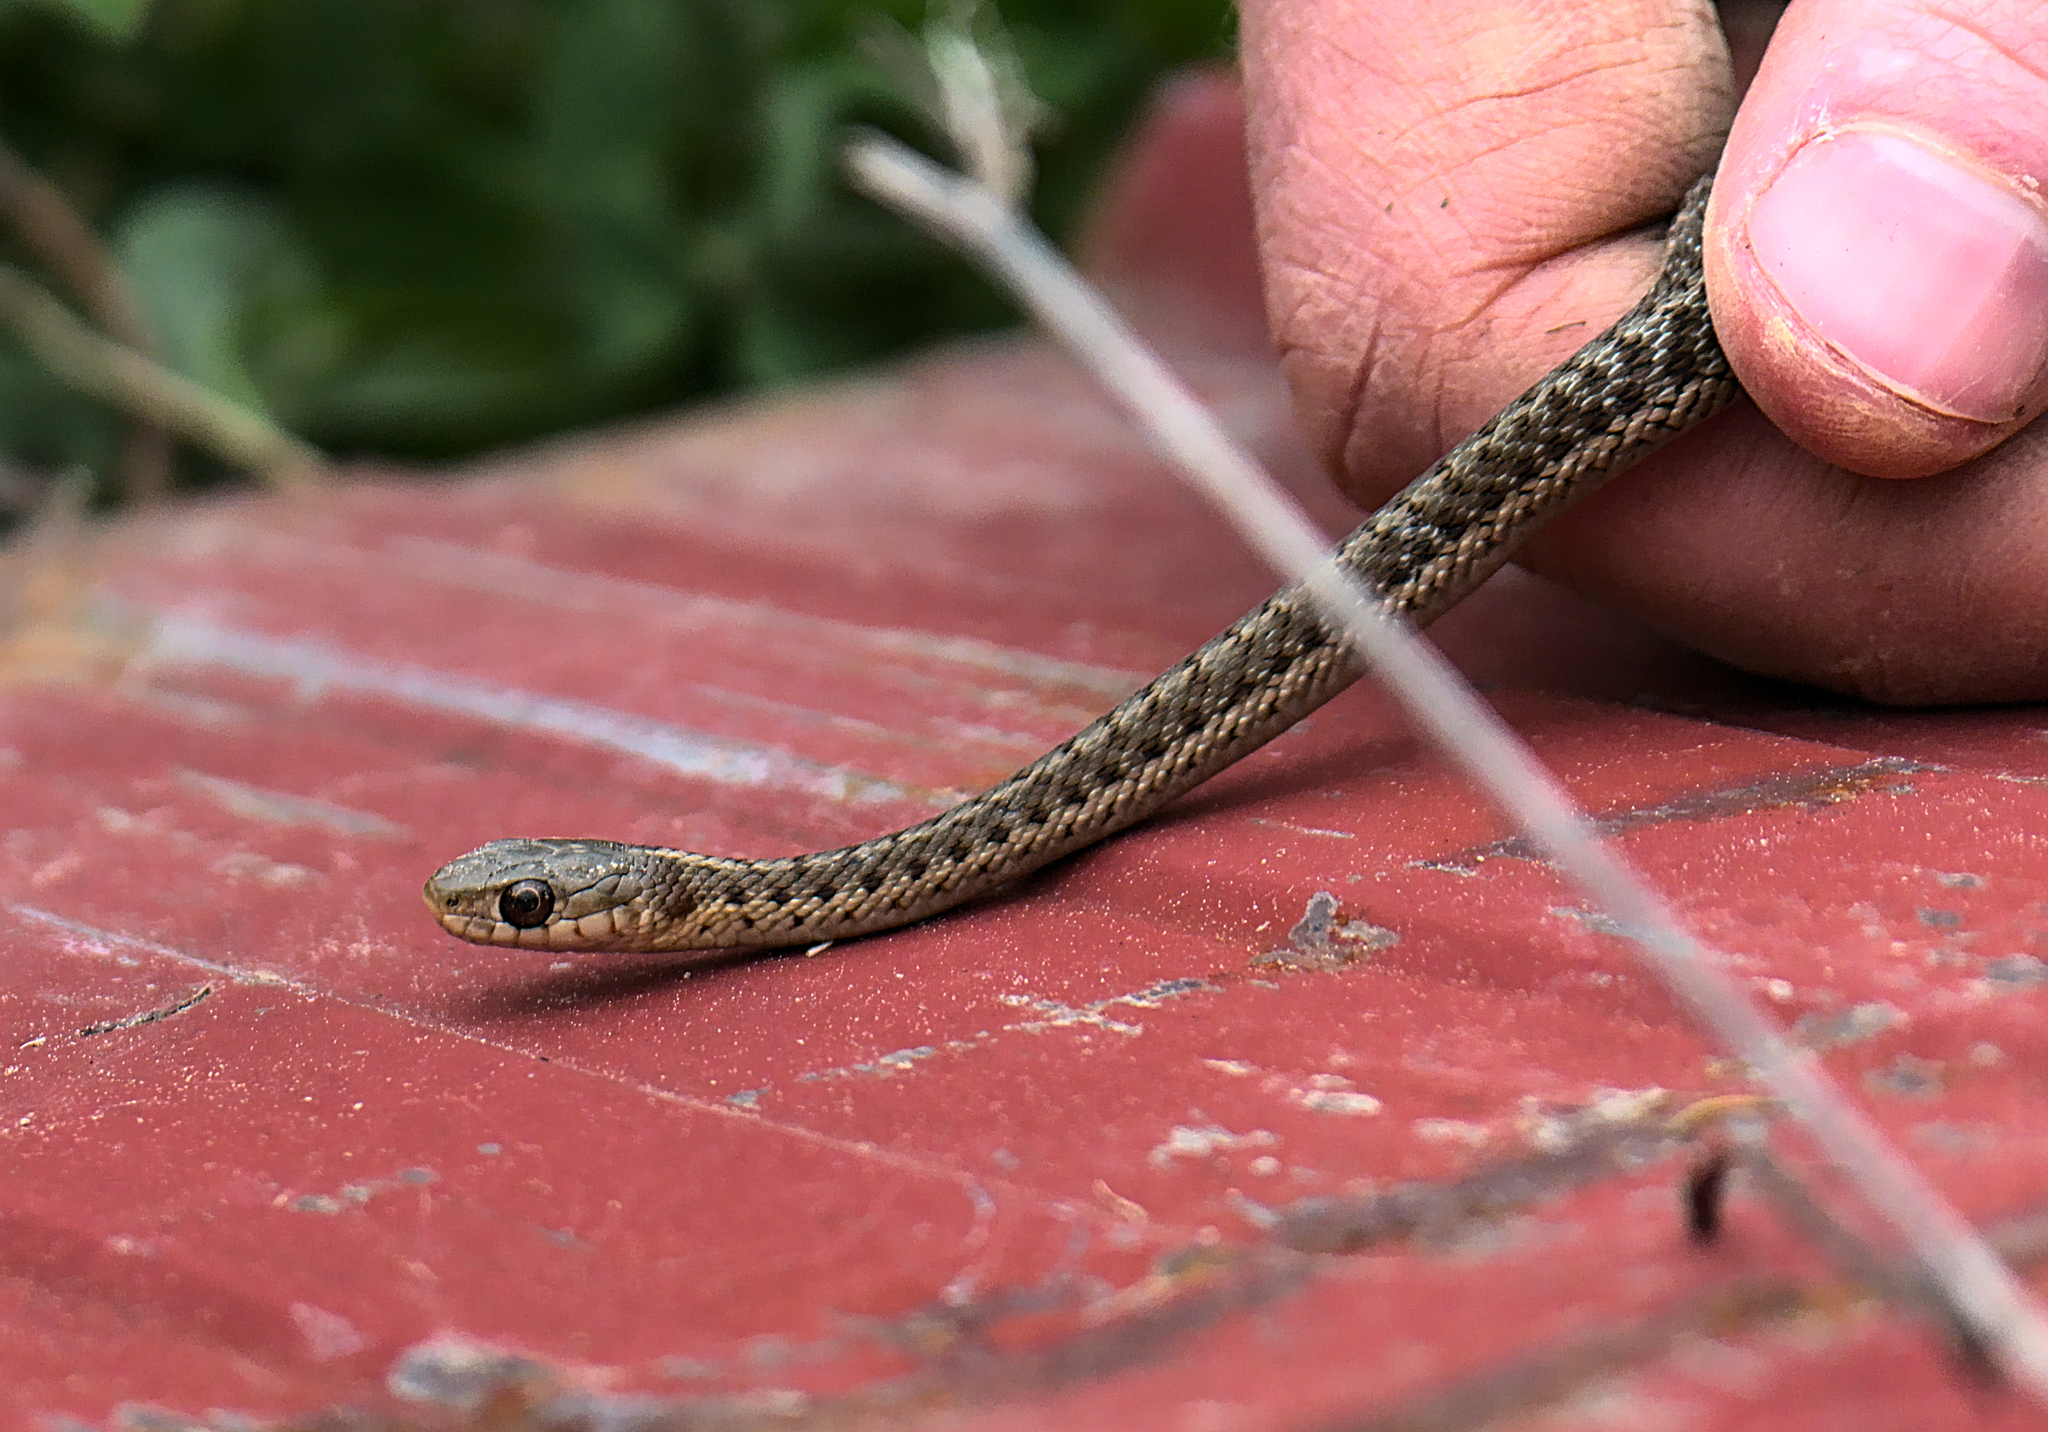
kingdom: Animalia
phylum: Chordata
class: Squamata
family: Colubridae
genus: Thamnophis
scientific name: Thamnophis sirtalis
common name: Common garter snake
